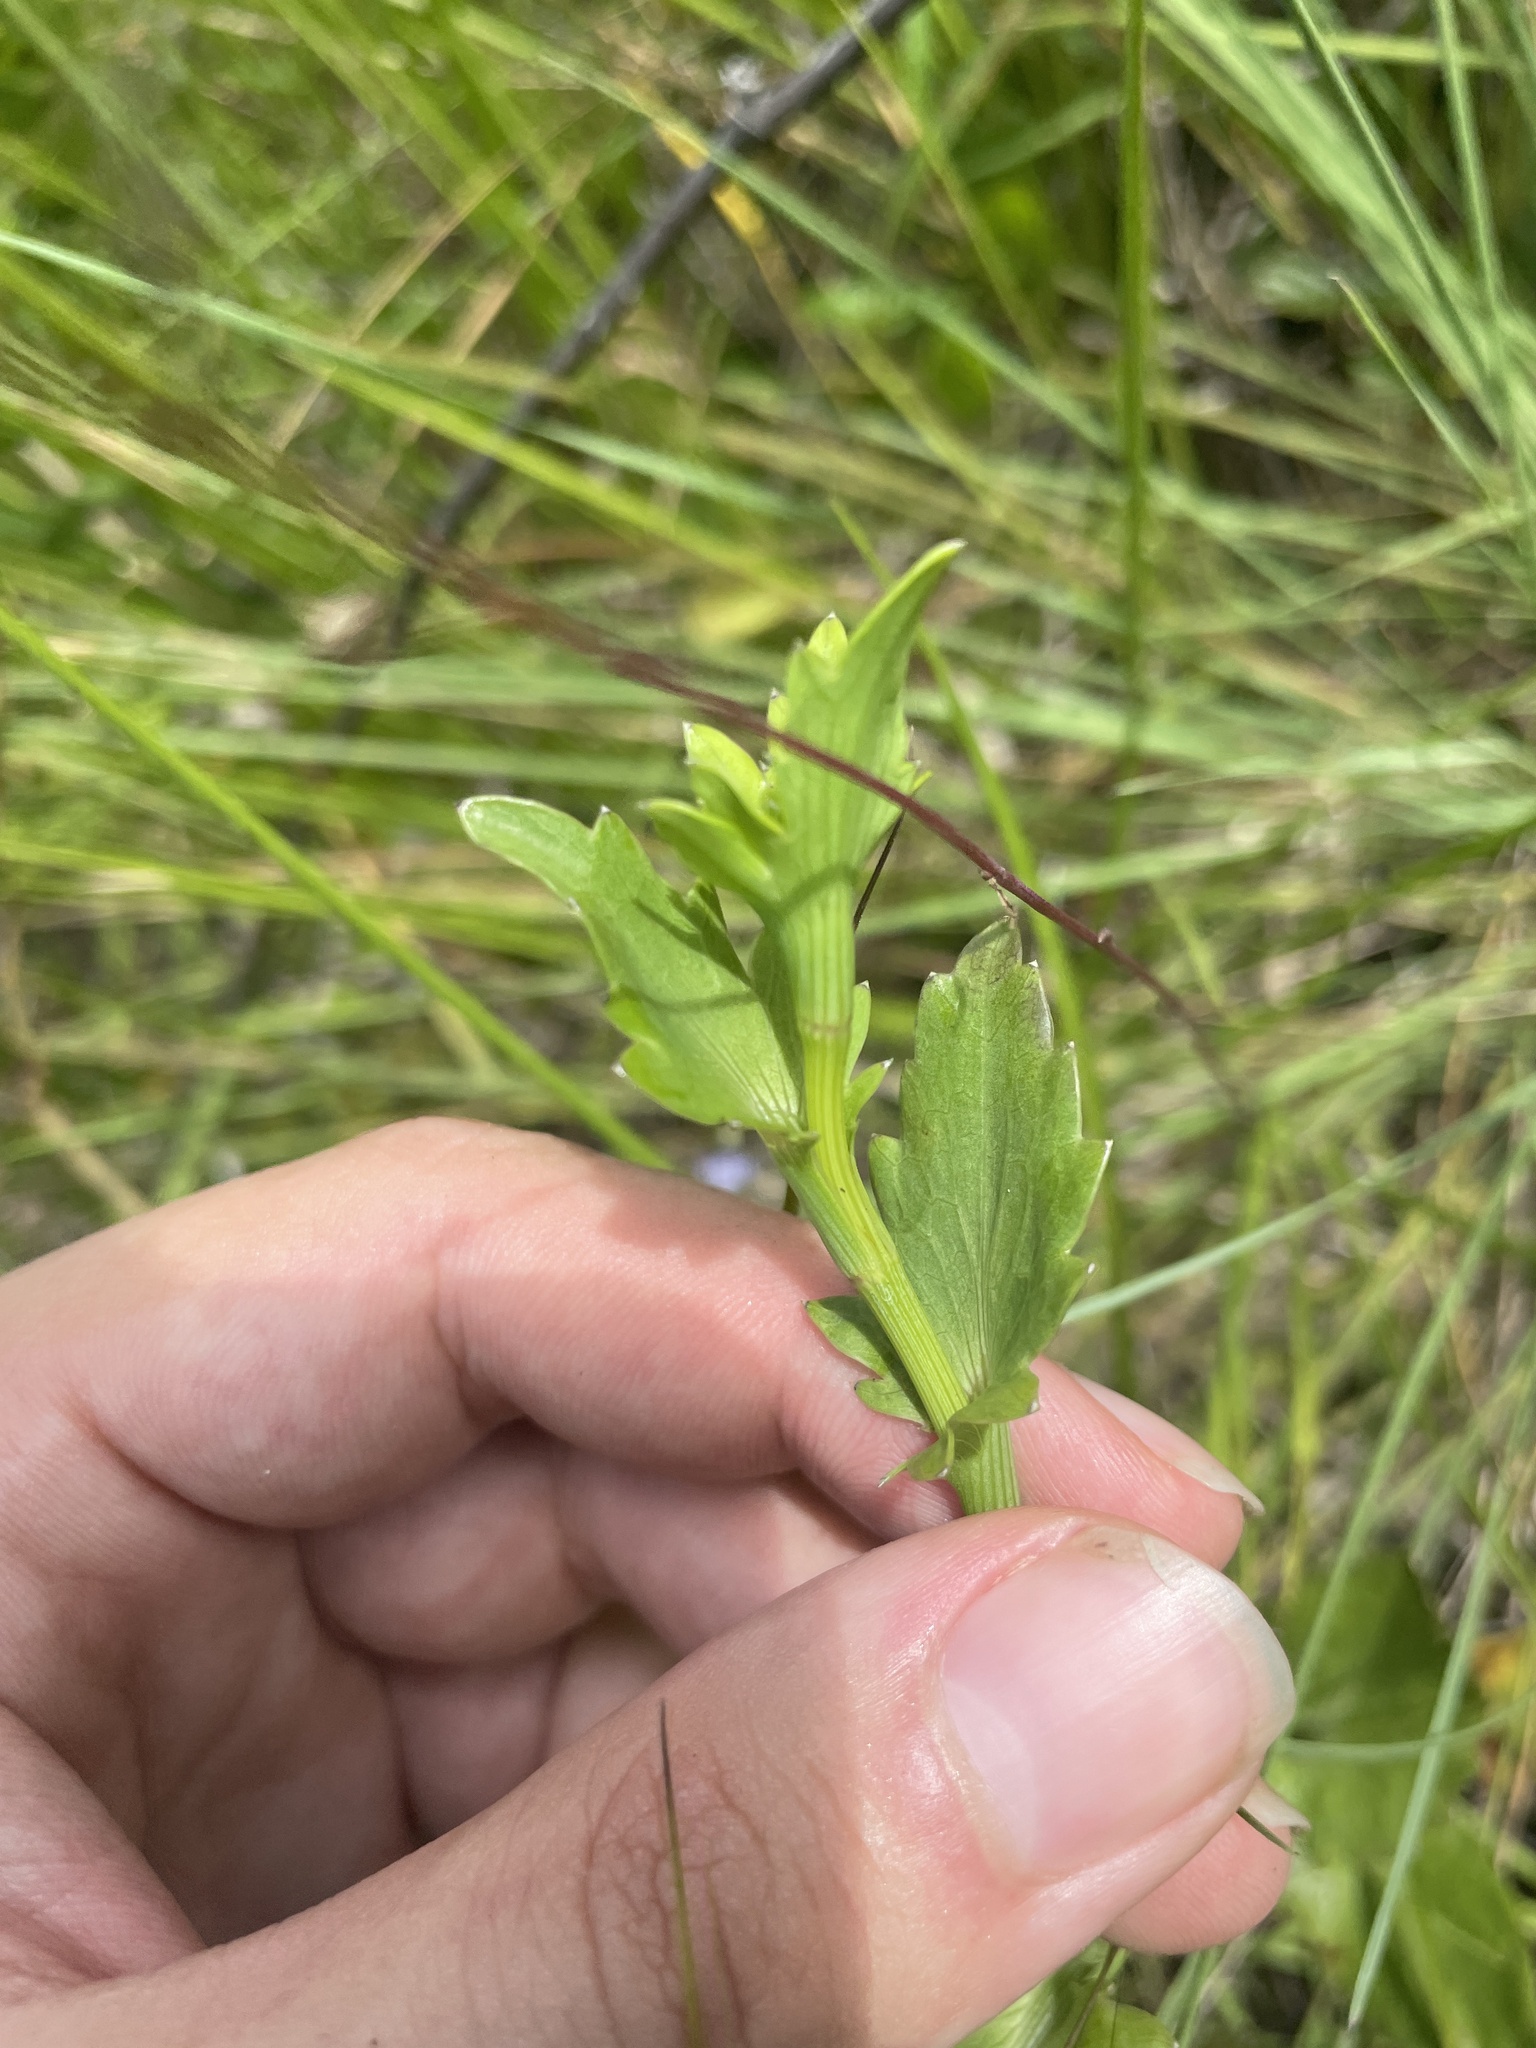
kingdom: Plantae
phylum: Tracheophyta
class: Magnoliopsida
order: Apiales
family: Apiaceae
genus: Eryngium
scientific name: Eryngium integrifolium
